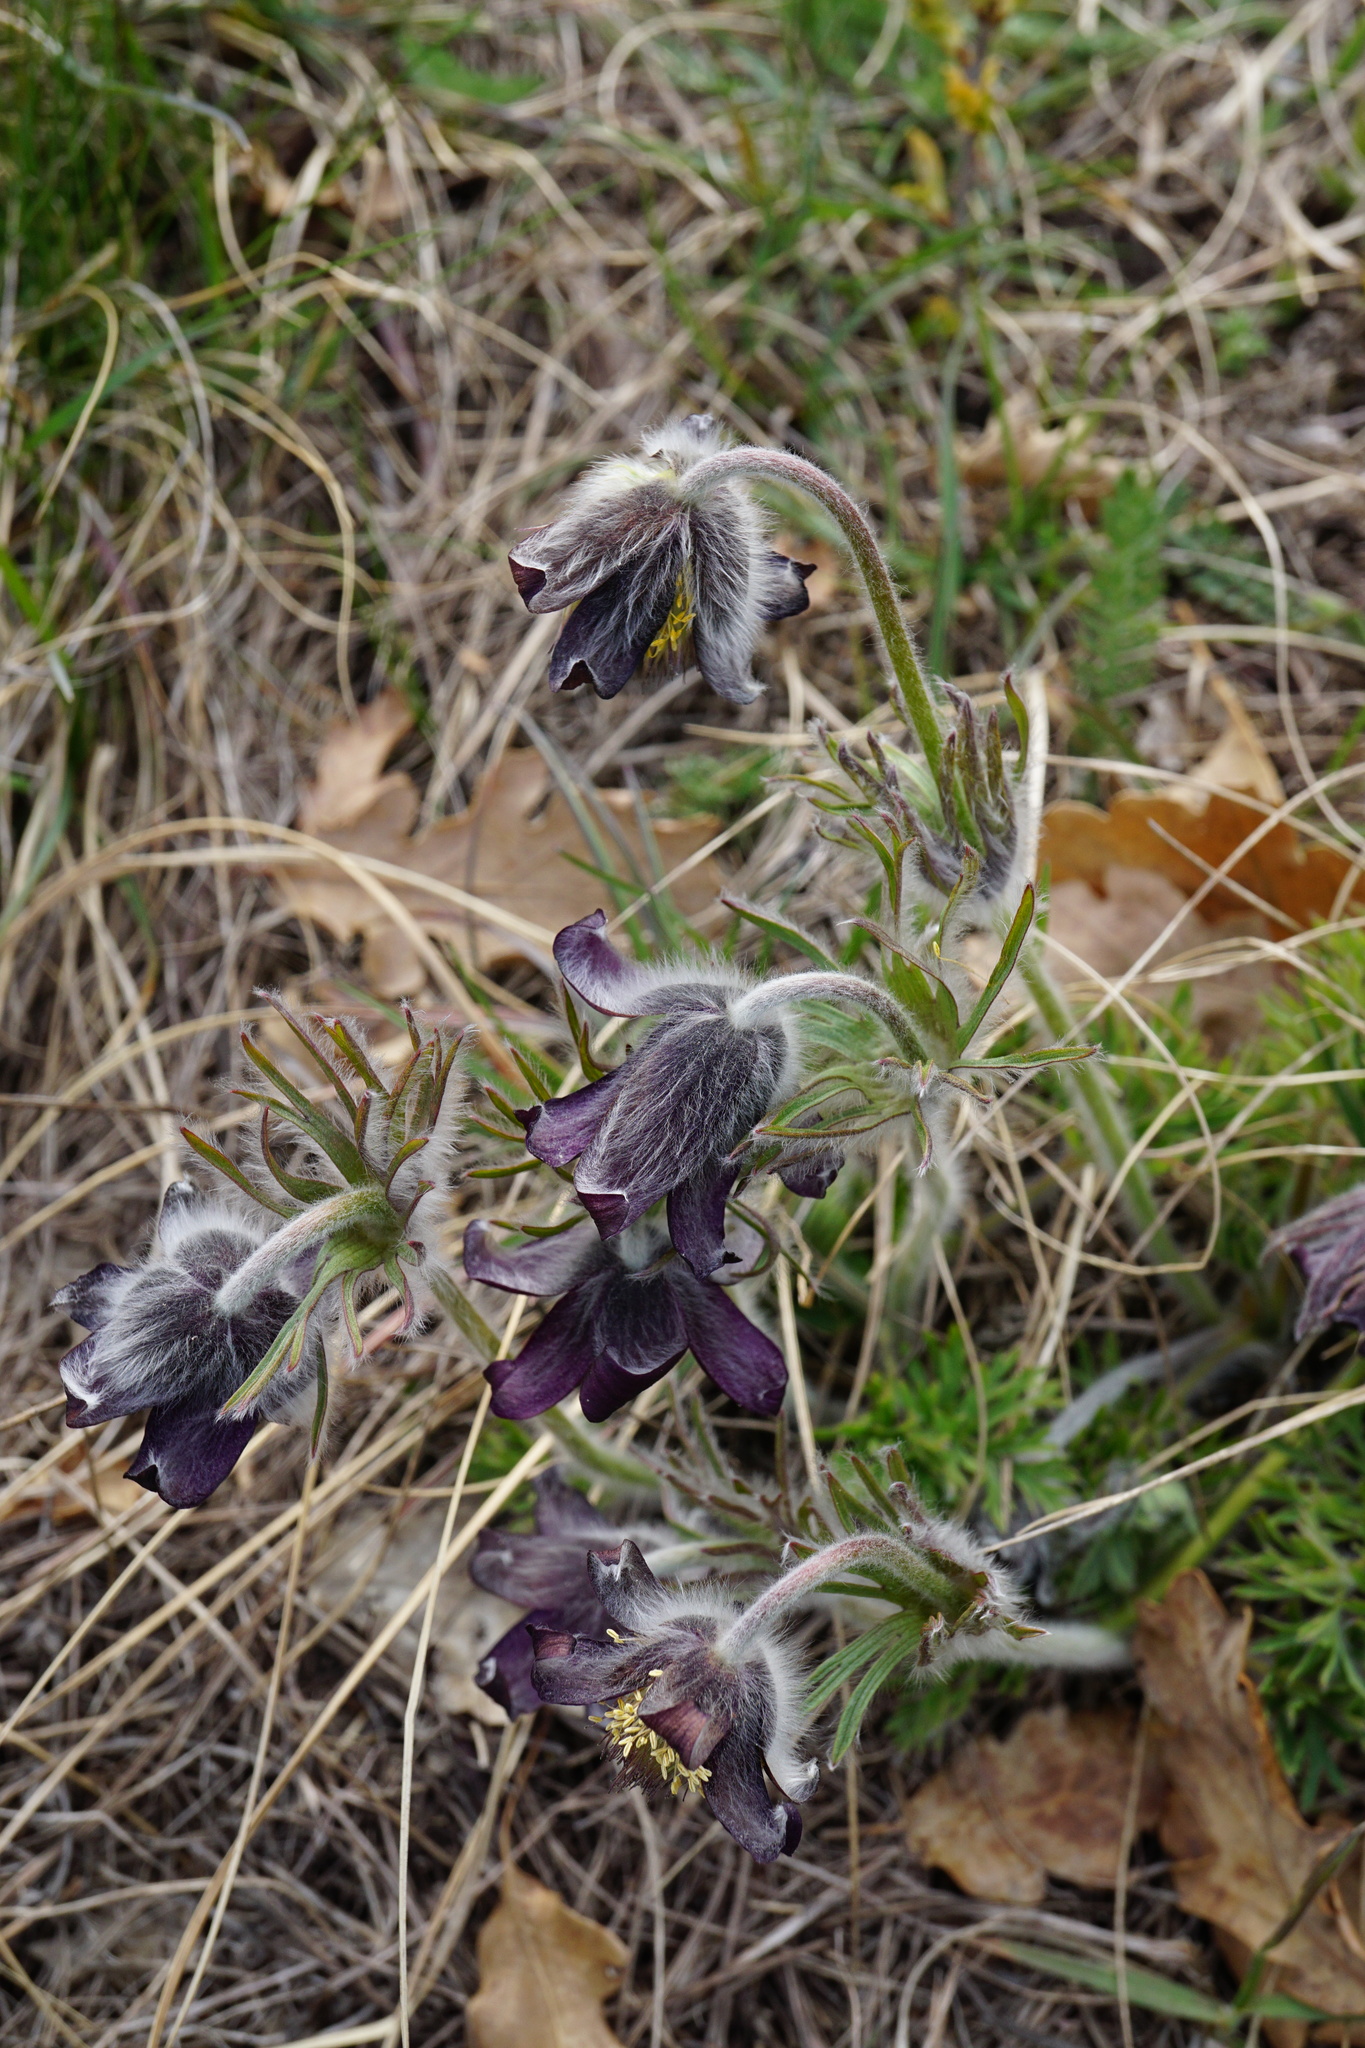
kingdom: Plantae
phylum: Tracheophyta
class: Magnoliopsida
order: Ranunculales
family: Ranunculaceae
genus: Pulsatilla
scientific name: Pulsatilla pratensis
